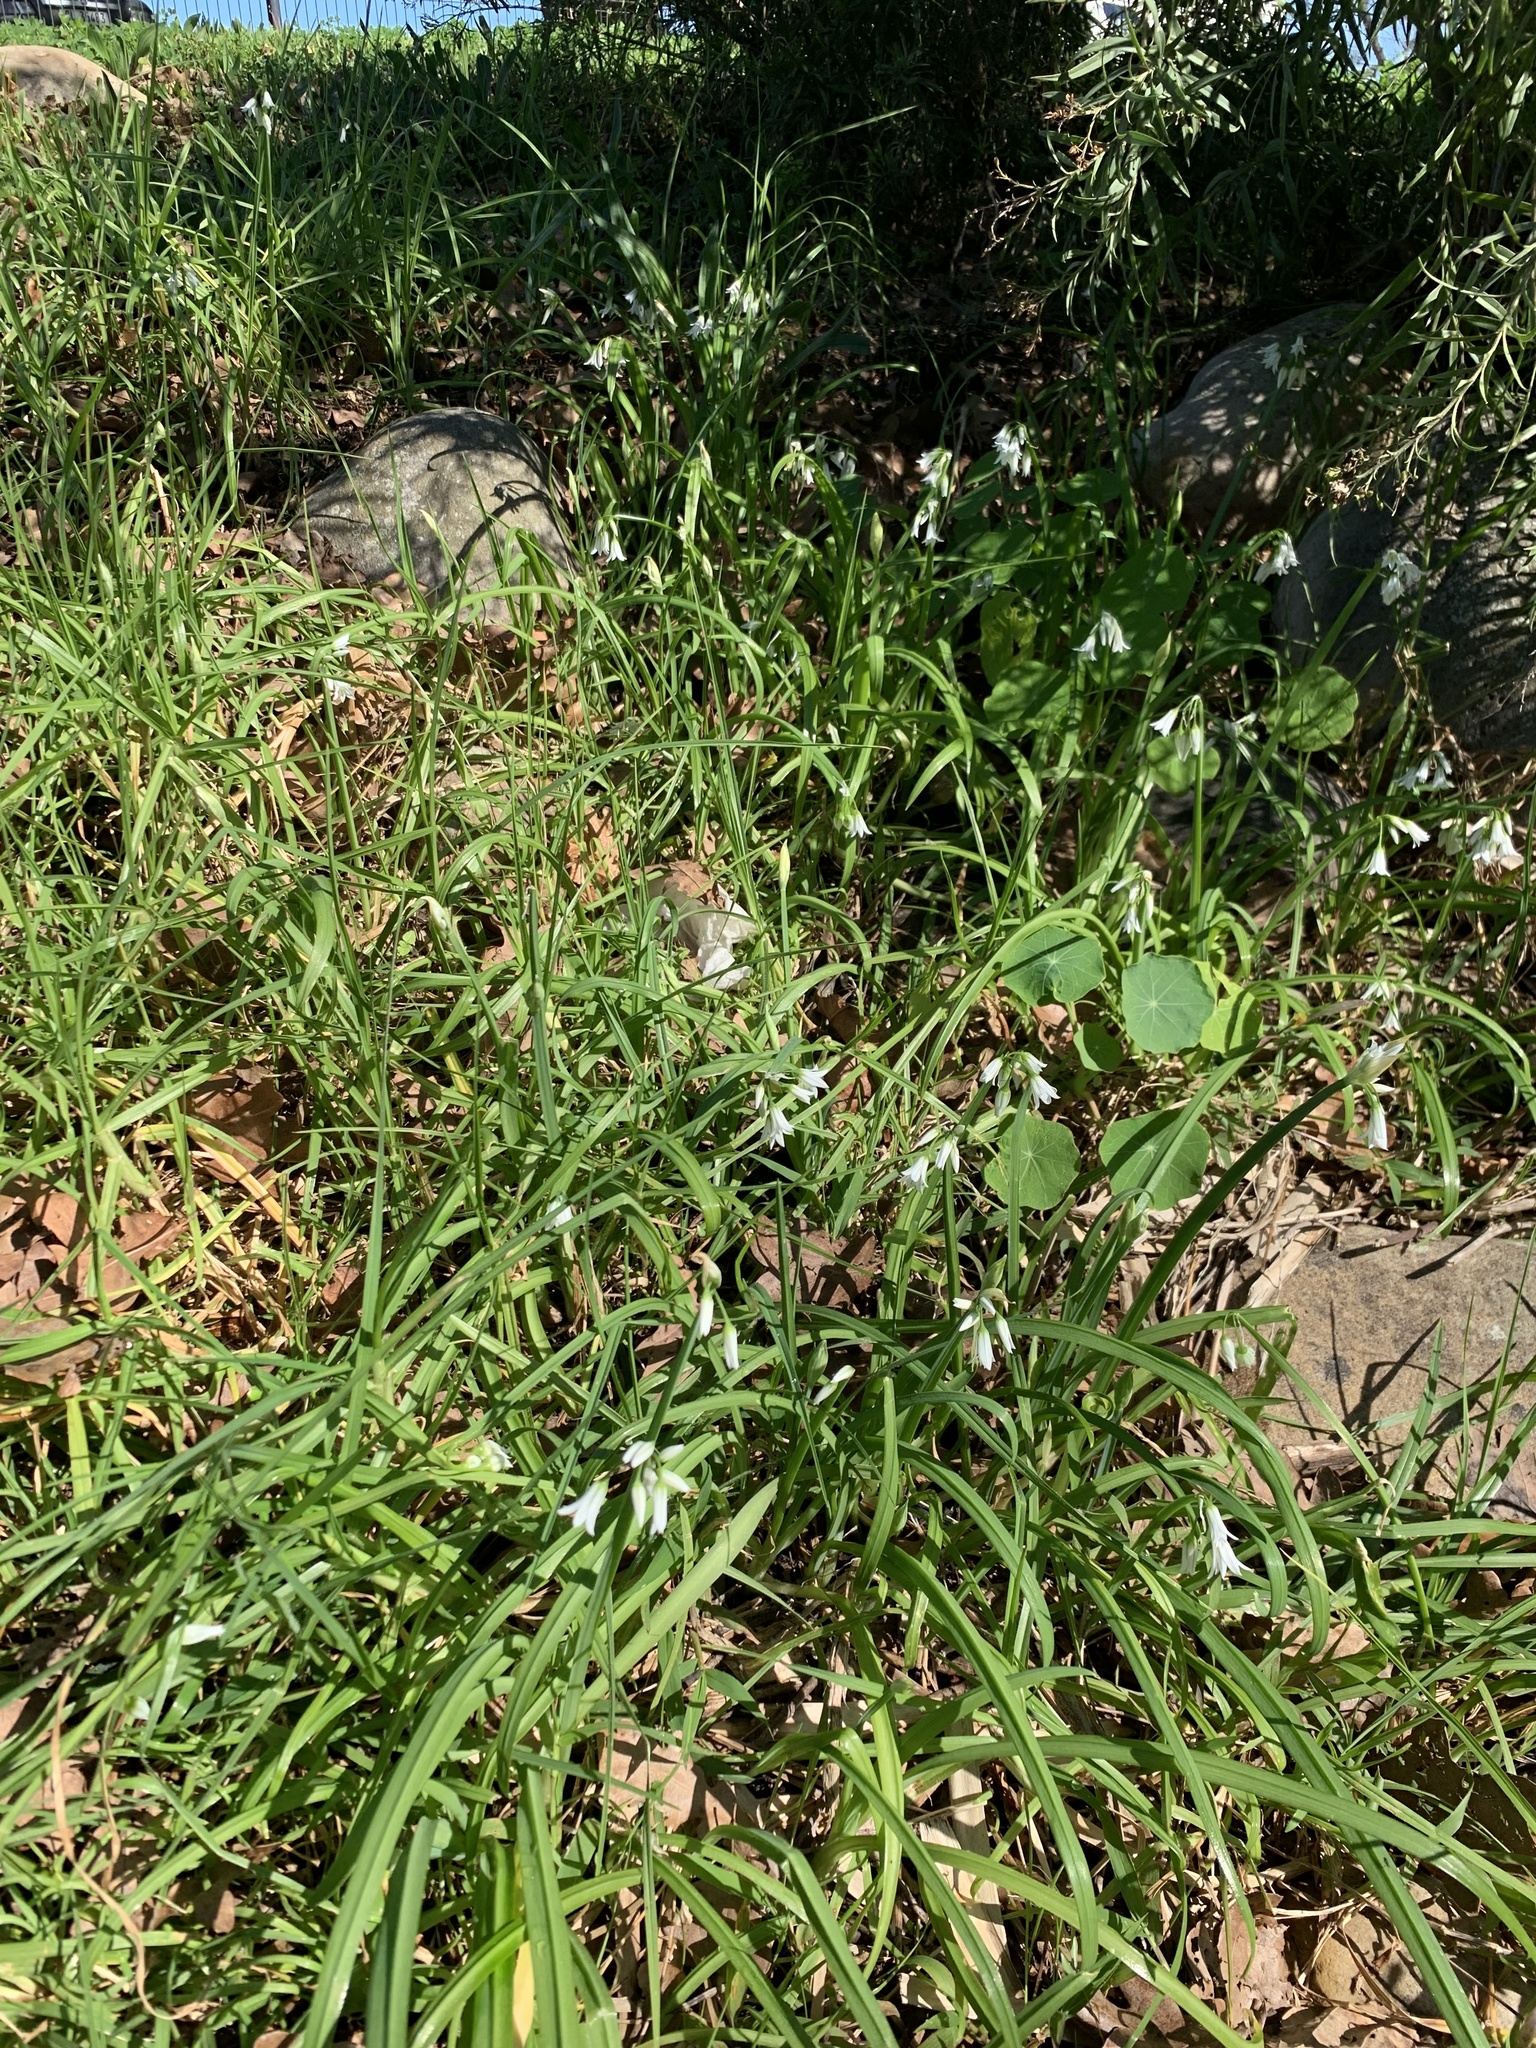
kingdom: Plantae
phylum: Tracheophyta
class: Liliopsida
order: Asparagales
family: Amaryllidaceae
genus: Allium
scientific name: Allium triquetrum
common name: Three-cornered garlic
